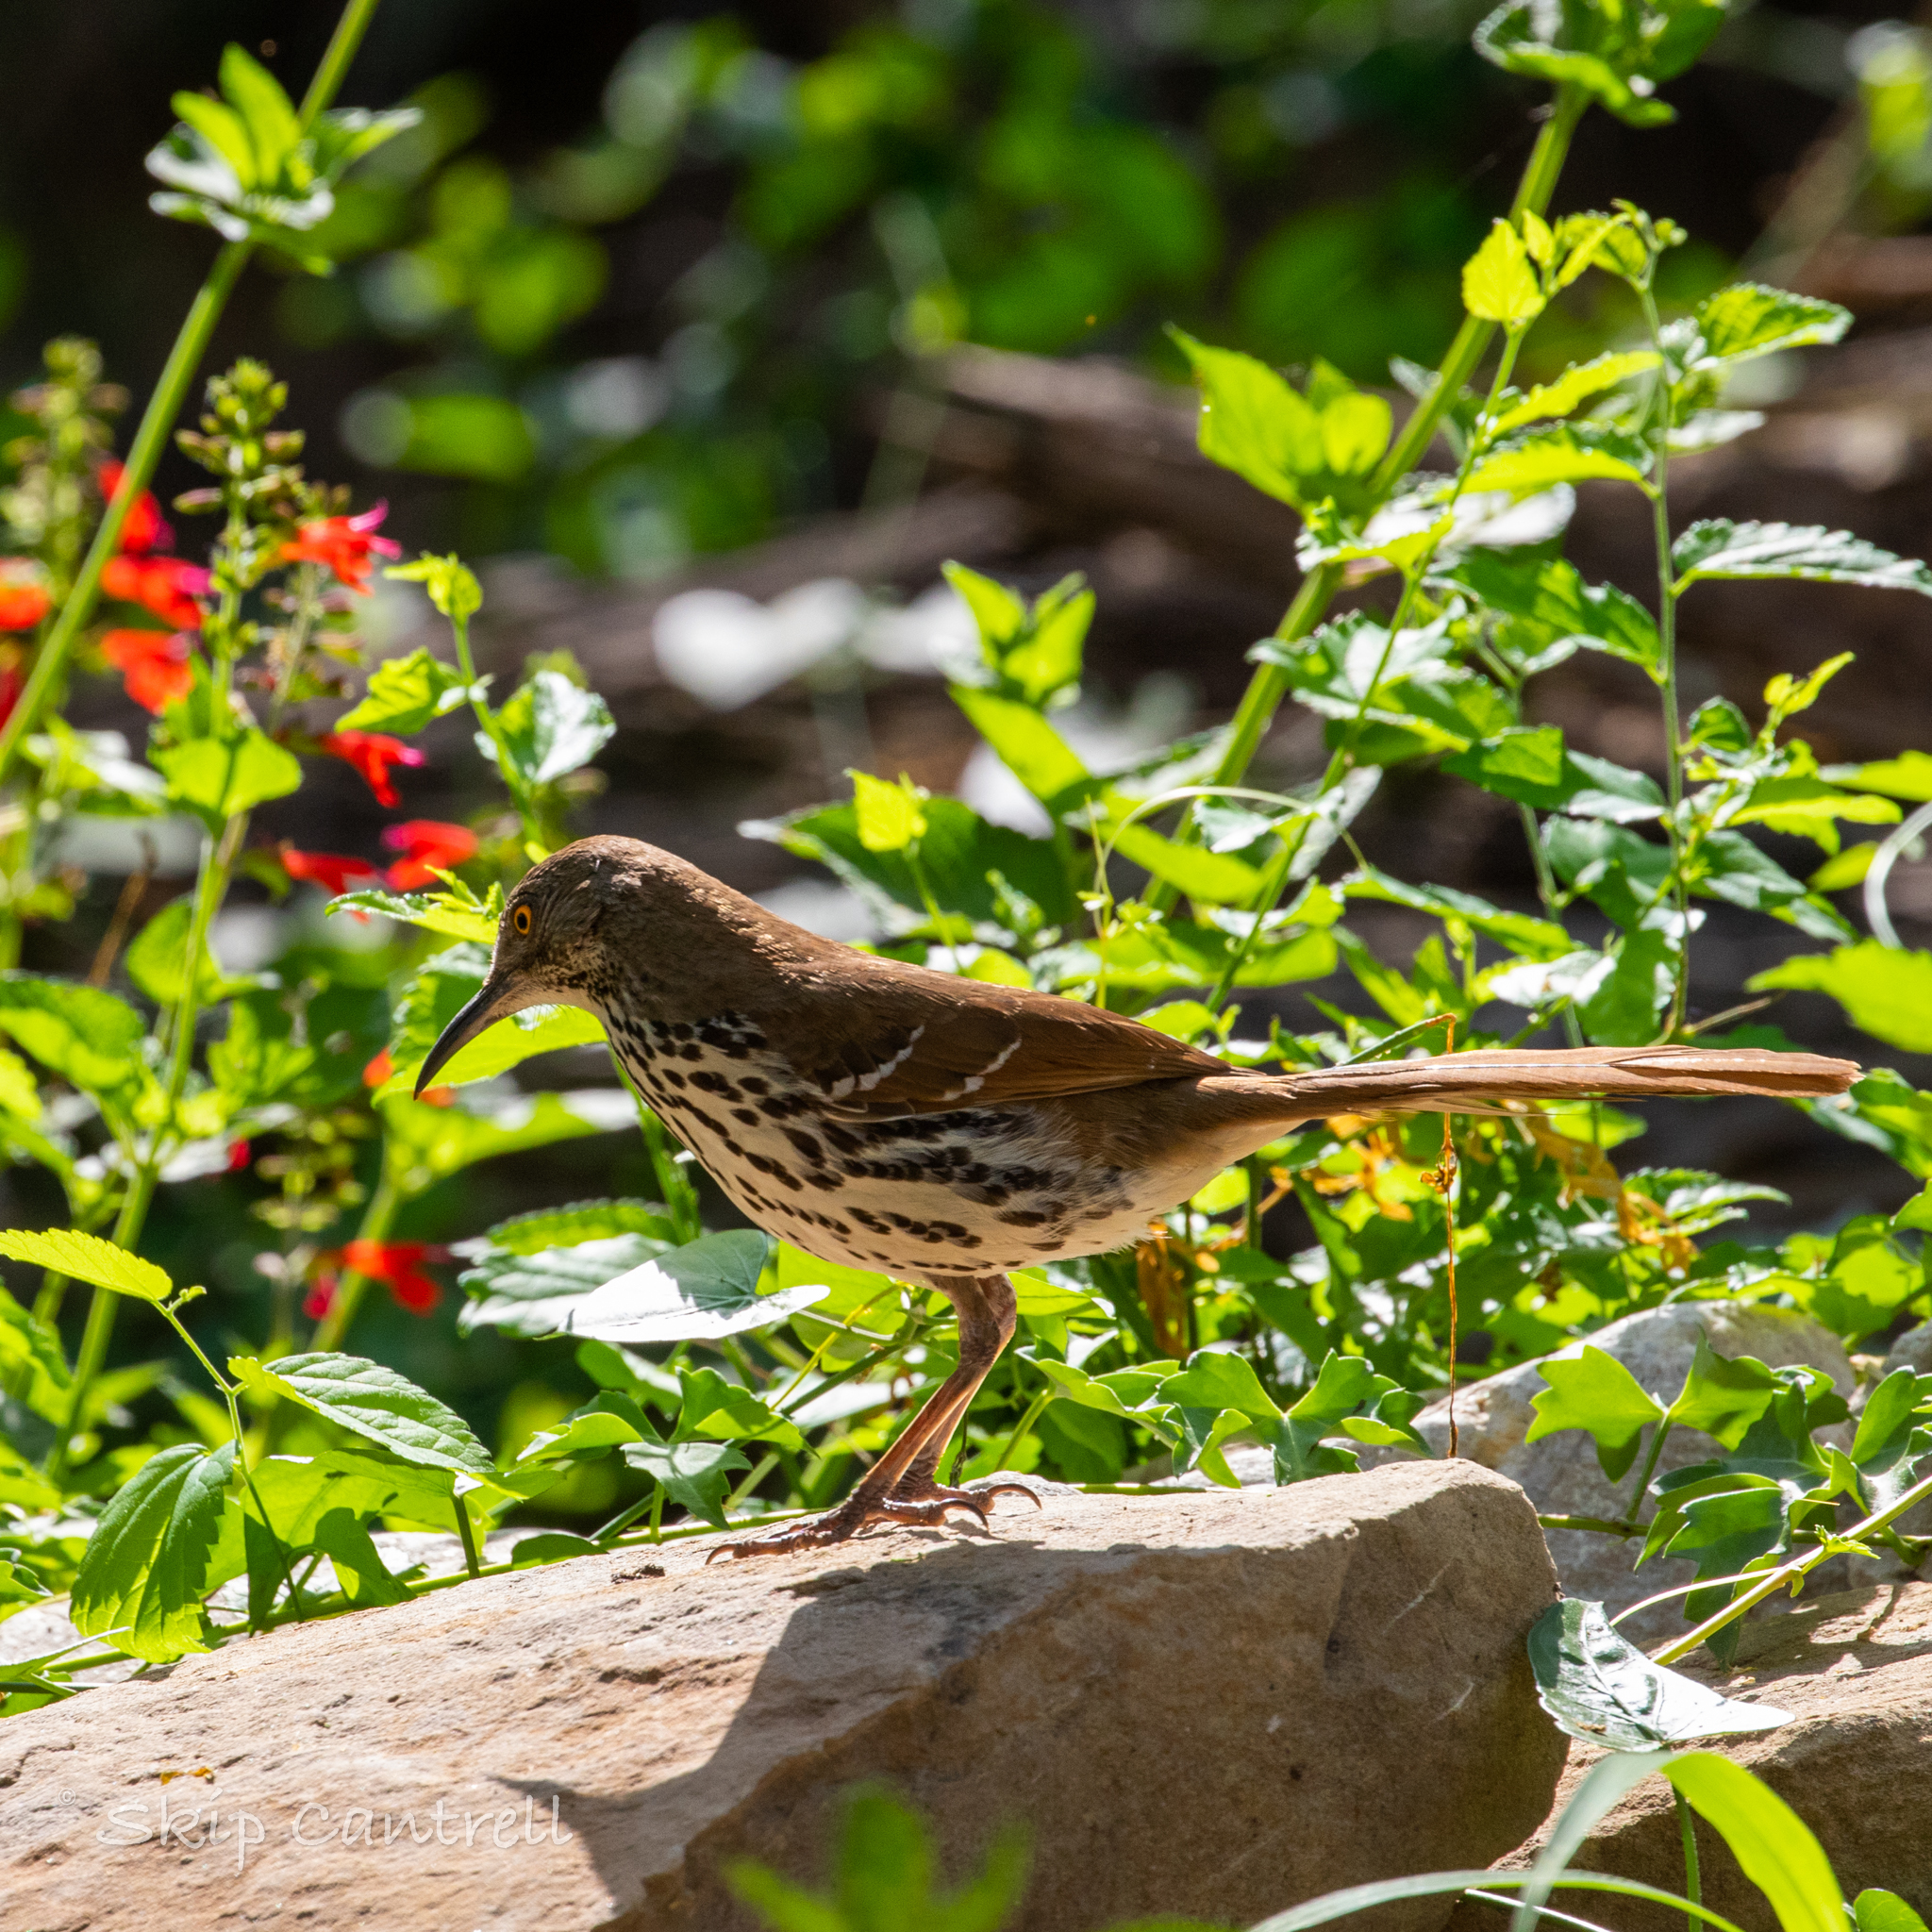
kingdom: Animalia
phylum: Chordata
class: Aves
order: Passeriformes
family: Mimidae
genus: Toxostoma
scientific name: Toxostoma longirostre
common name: Long-billed thrasher
